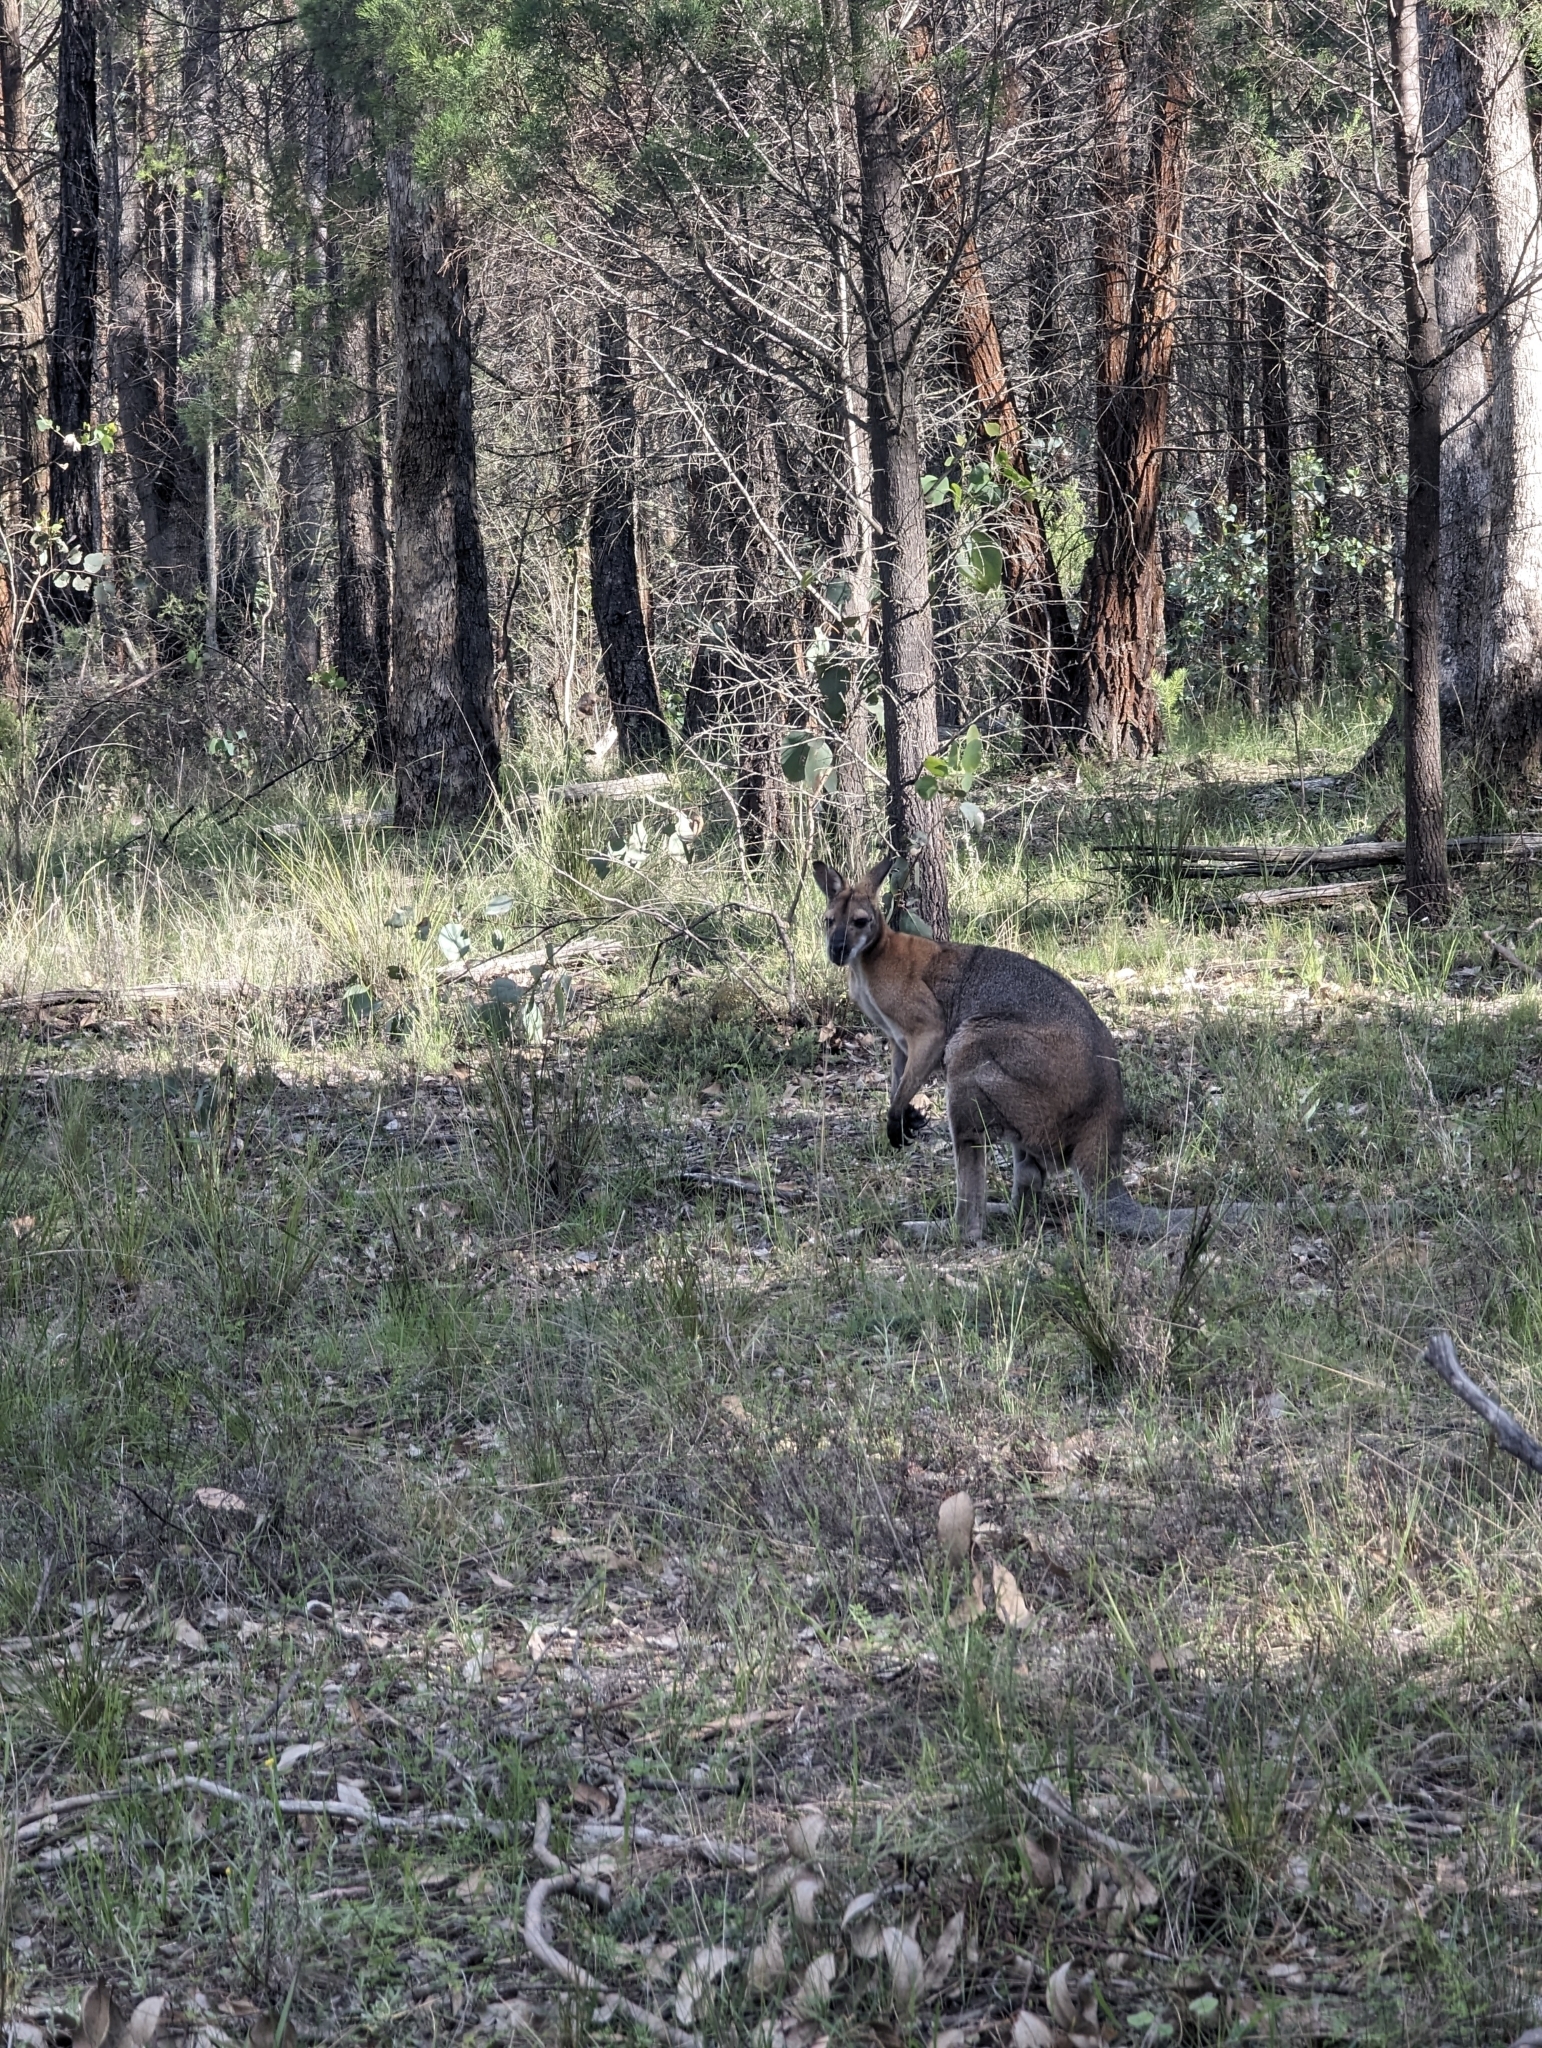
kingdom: Animalia
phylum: Chordata
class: Mammalia
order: Diprotodontia
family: Macropodidae
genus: Notamacropus
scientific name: Notamacropus rufogriseus
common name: Red-necked wallaby
